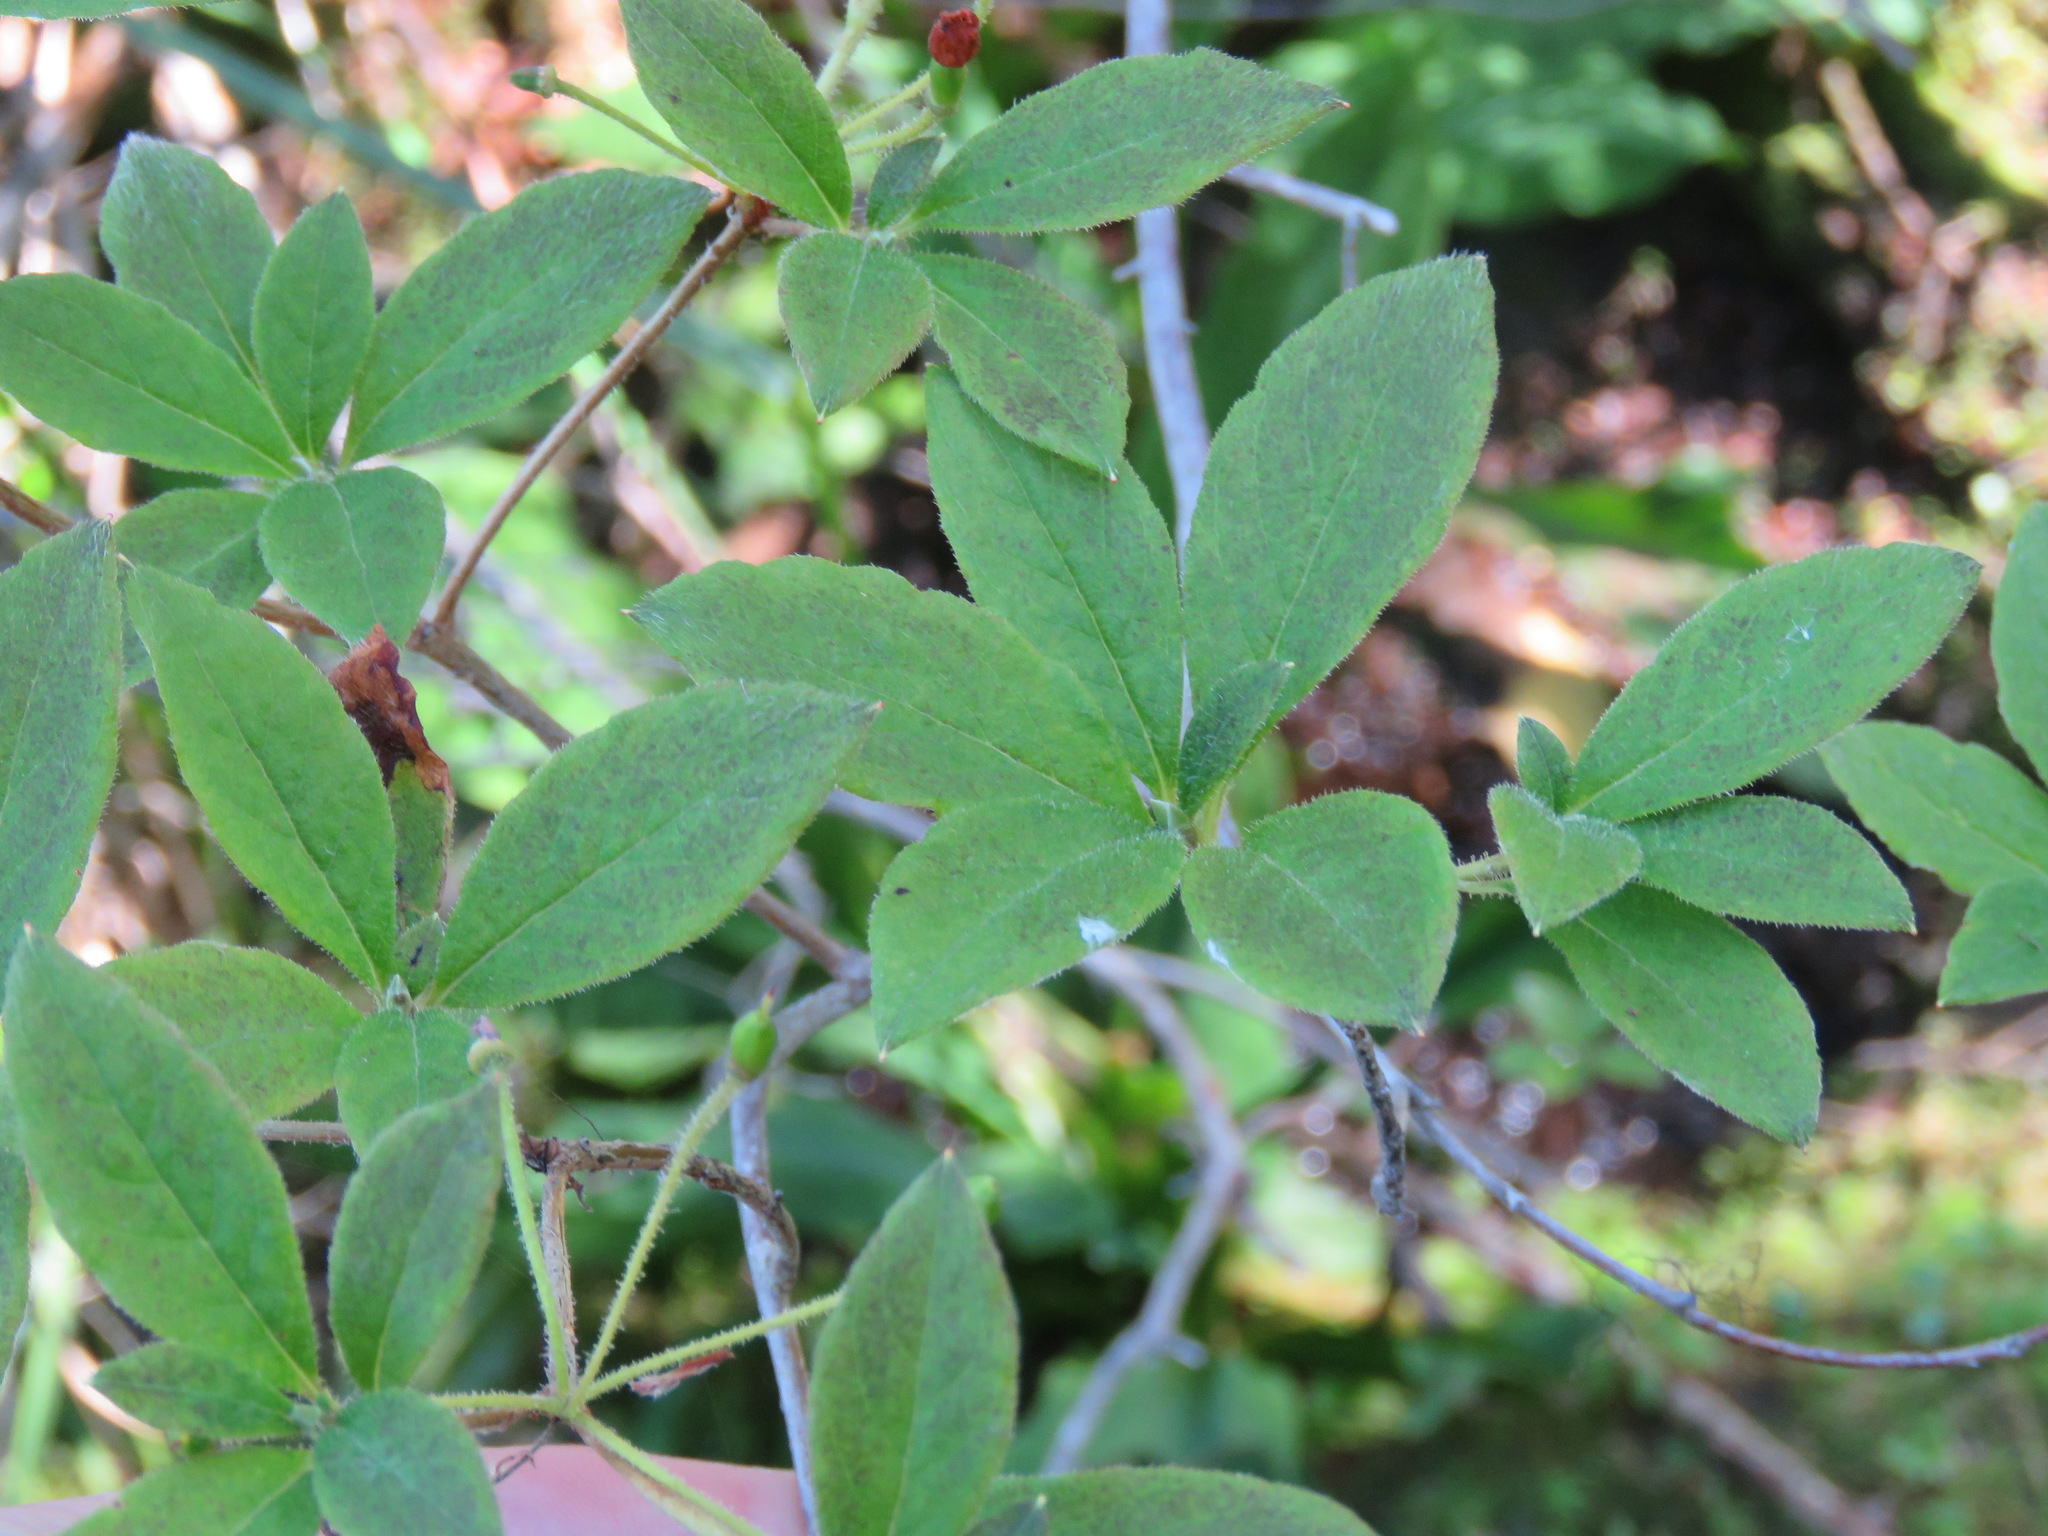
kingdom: Plantae
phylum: Tracheophyta
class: Magnoliopsida
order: Ericales
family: Ericaceae
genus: Rhododendron
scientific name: Rhododendron menziesii
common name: Pacific menziesia
